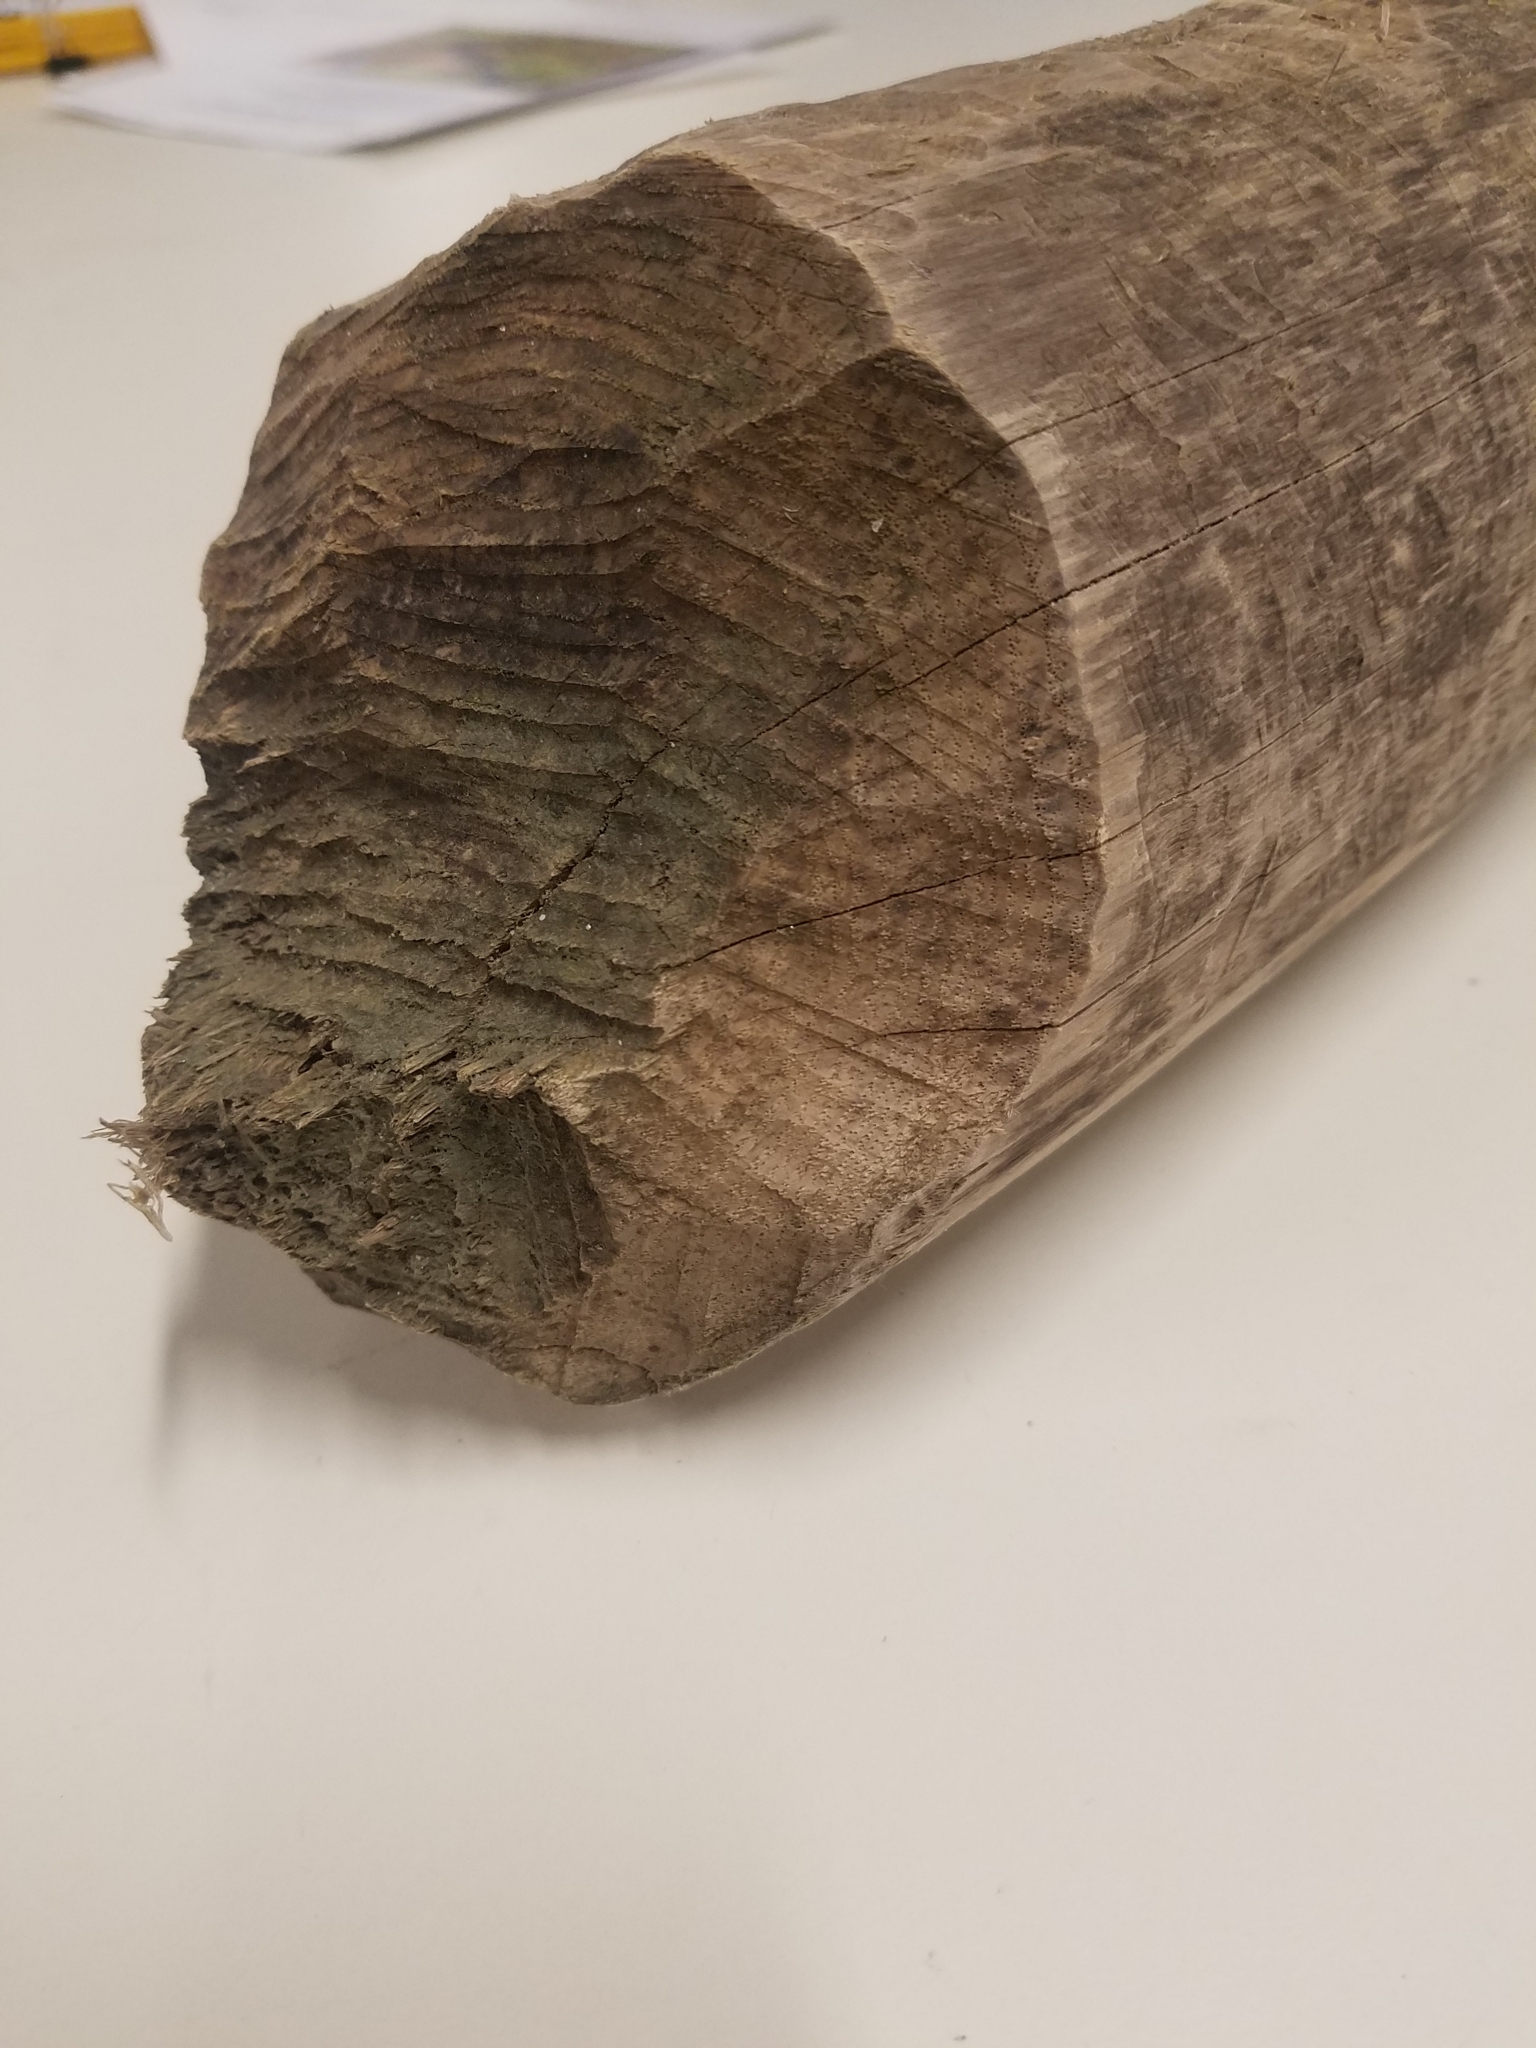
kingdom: Animalia
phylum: Chordata
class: Mammalia
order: Rodentia
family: Castoridae
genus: Castor
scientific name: Castor canadensis
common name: American beaver
